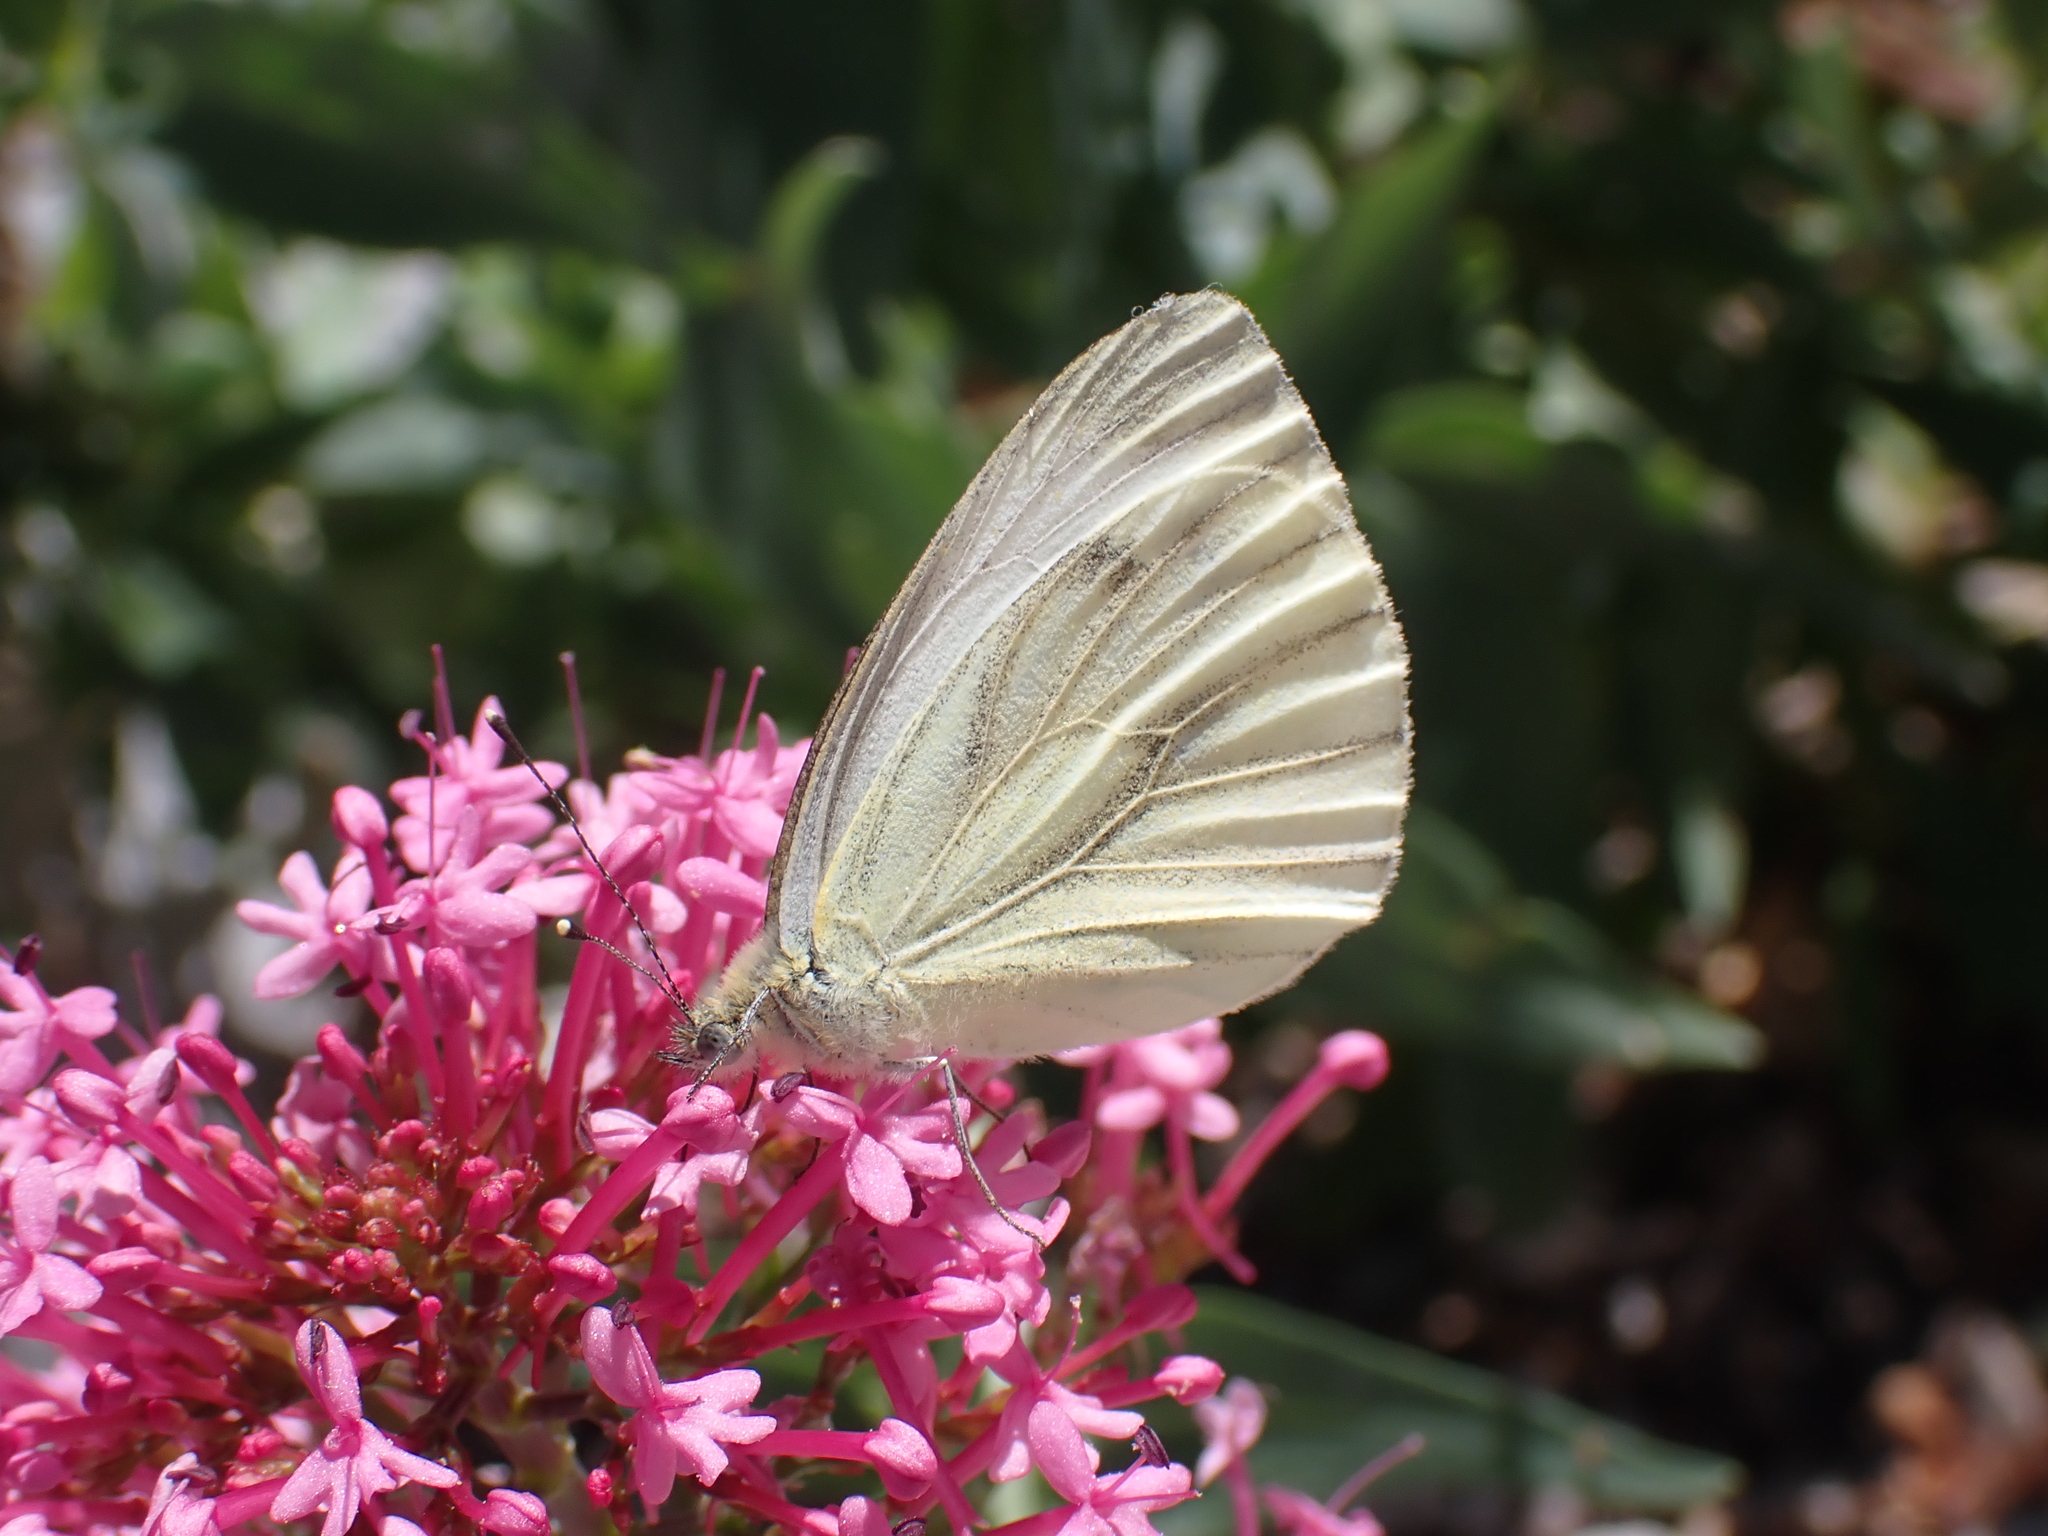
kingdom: Animalia
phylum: Arthropoda
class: Insecta
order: Lepidoptera
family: Pieridae
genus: Pieris
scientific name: Pieris napi
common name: Green-veined white
